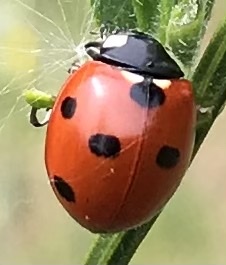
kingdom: Animalia
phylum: Arthropoda
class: Insecta
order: Coleoptera
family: Coccinellidae
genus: Coccinella
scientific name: Coccinella septempunctata
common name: Sevenspotted lady beetle
